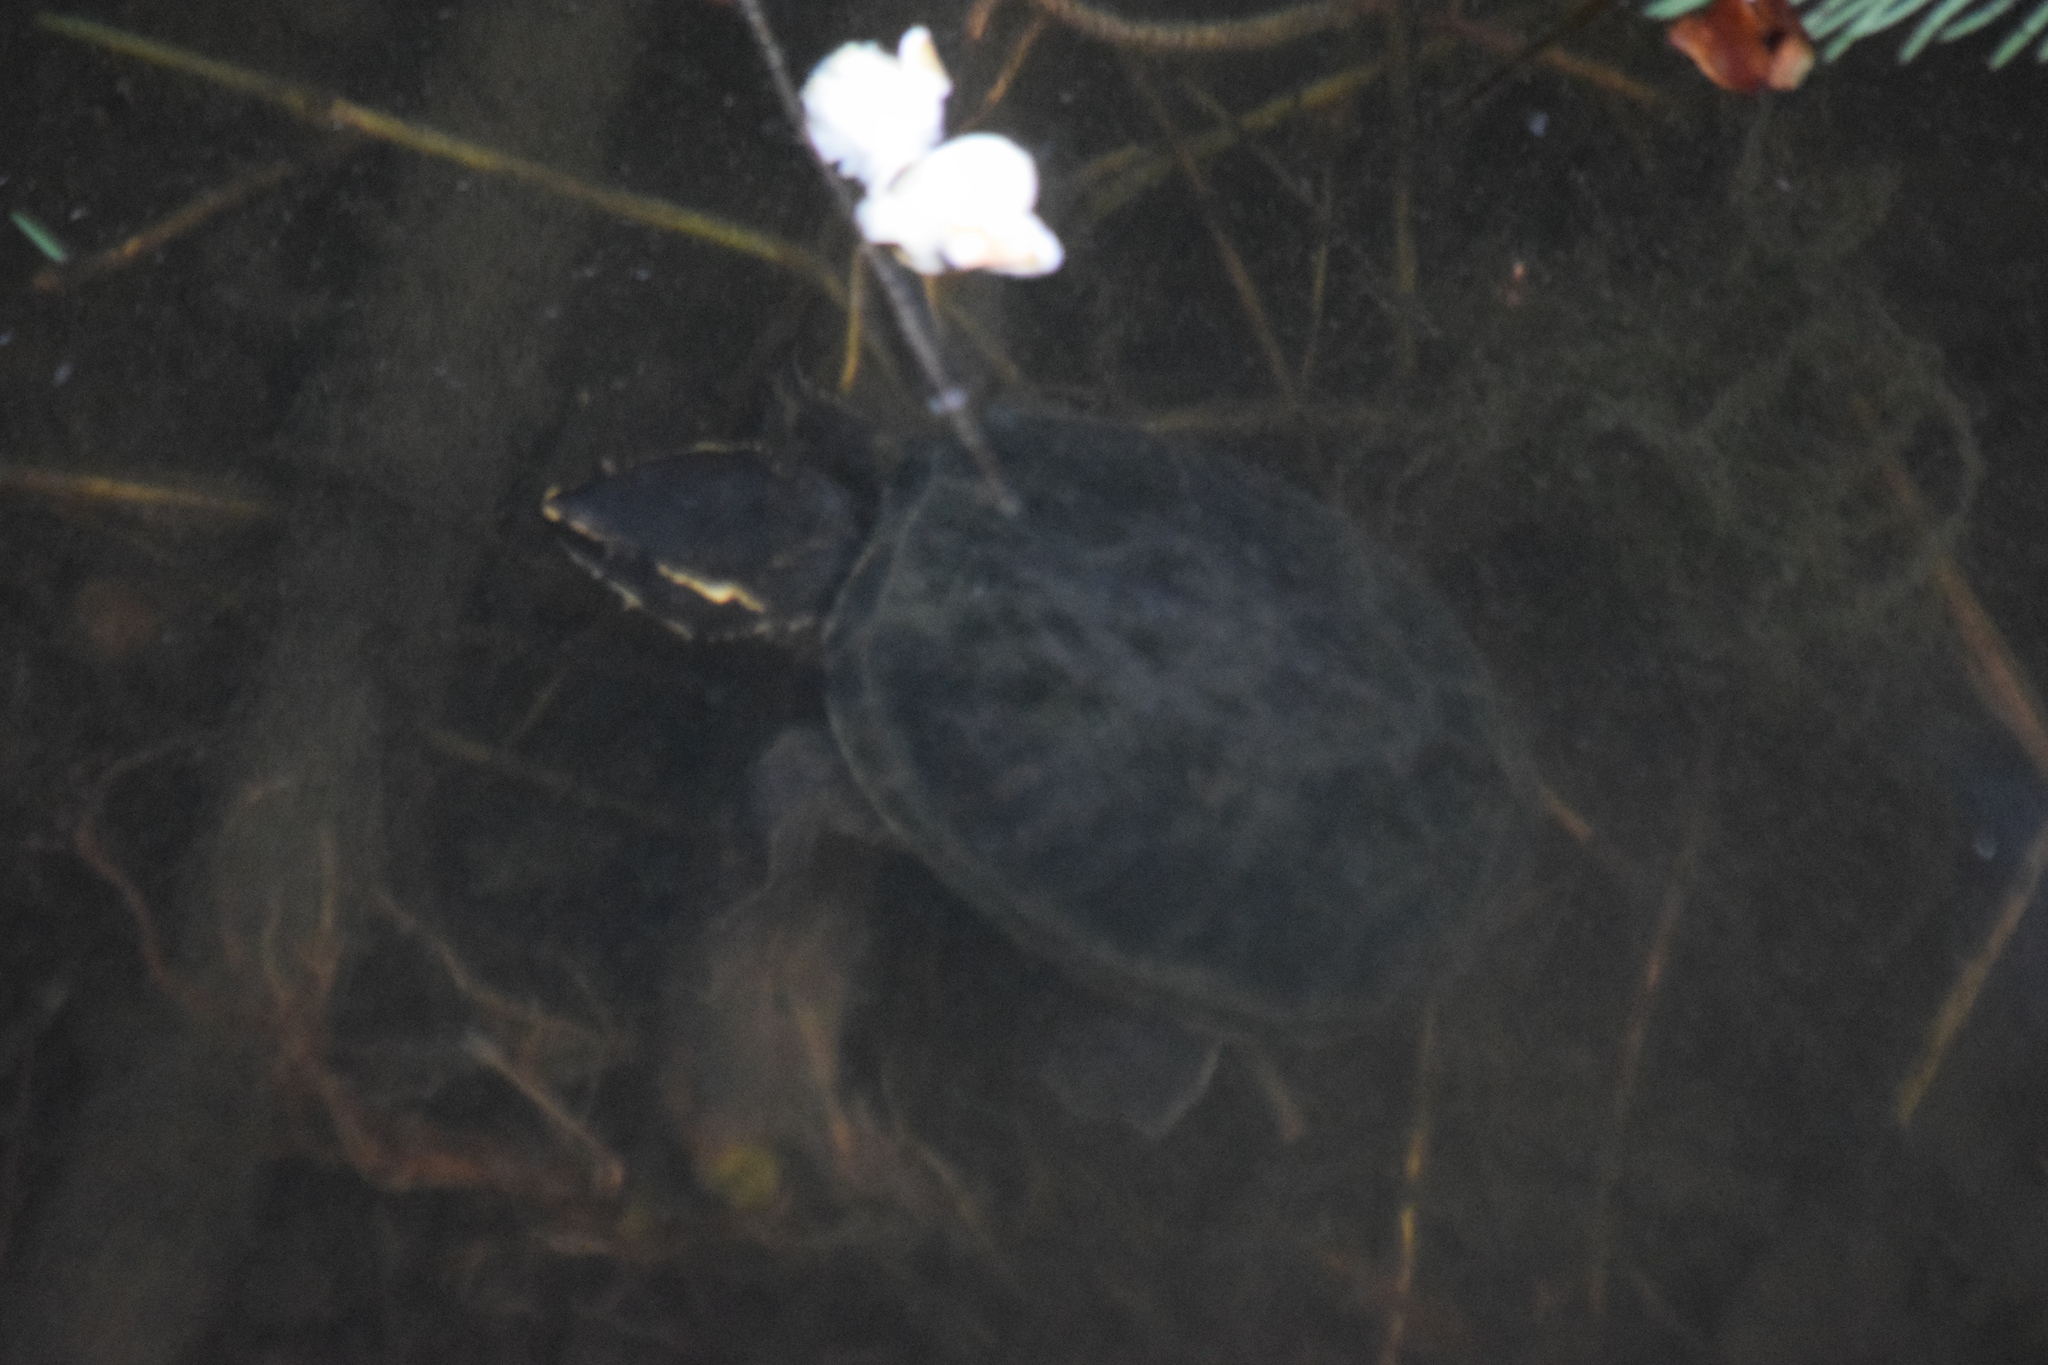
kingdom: Animalia
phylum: Chordata
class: Testudines
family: Kinosternidae
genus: Sternotherus
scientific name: Sternotherus odoratus
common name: Common musk turtle
